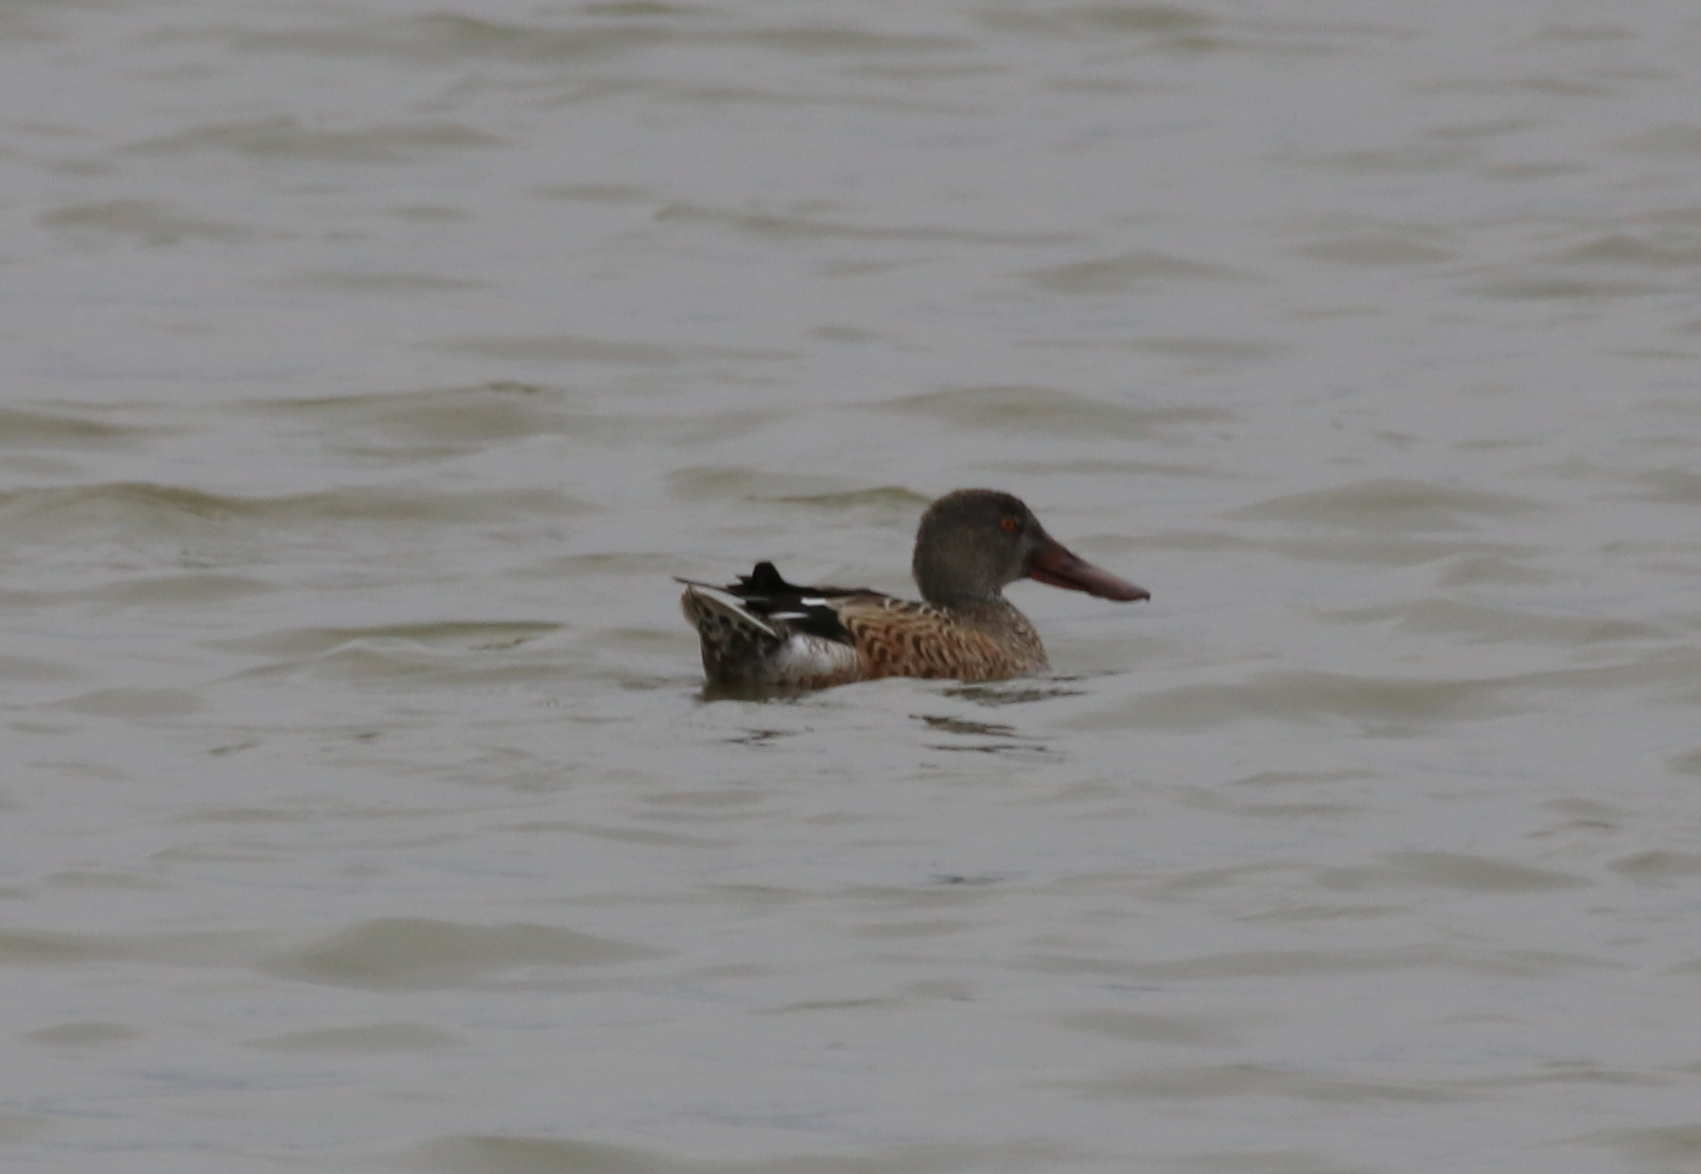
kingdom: Animalia
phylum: Chordata
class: Aves
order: Anseriformes
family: Anatidae
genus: Spatula
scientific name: Spatula clypeata
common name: Northern shoveler
